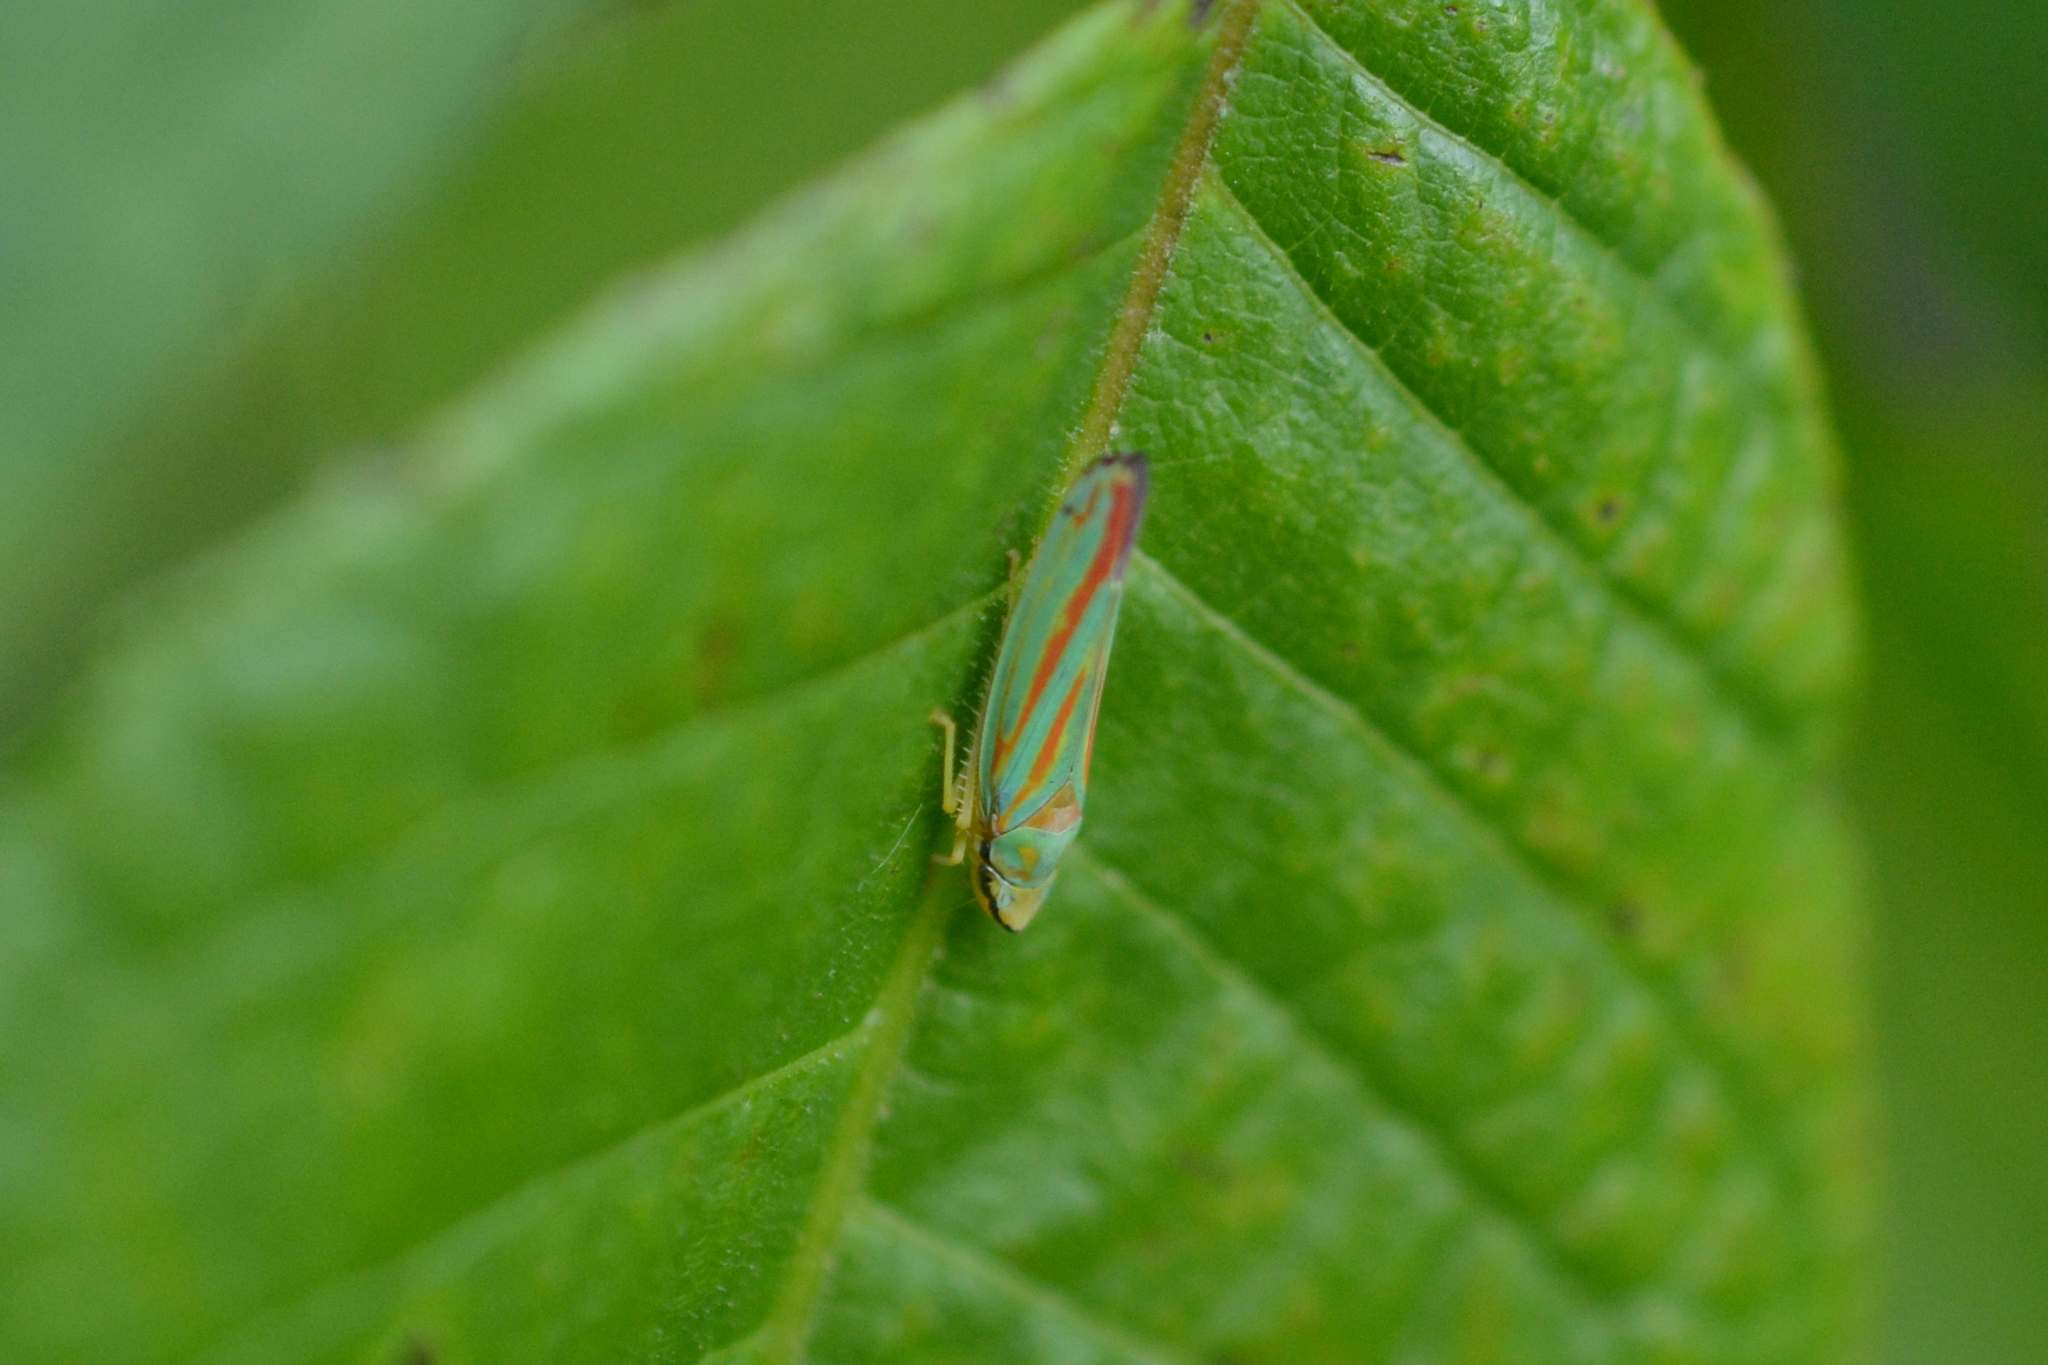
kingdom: Animalia
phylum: Arthropoda
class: Insecta
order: Hemiptera
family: Cicadellidae
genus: Graphocephala
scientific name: Graphocephala fennahi
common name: Rhododendron leafhopper
